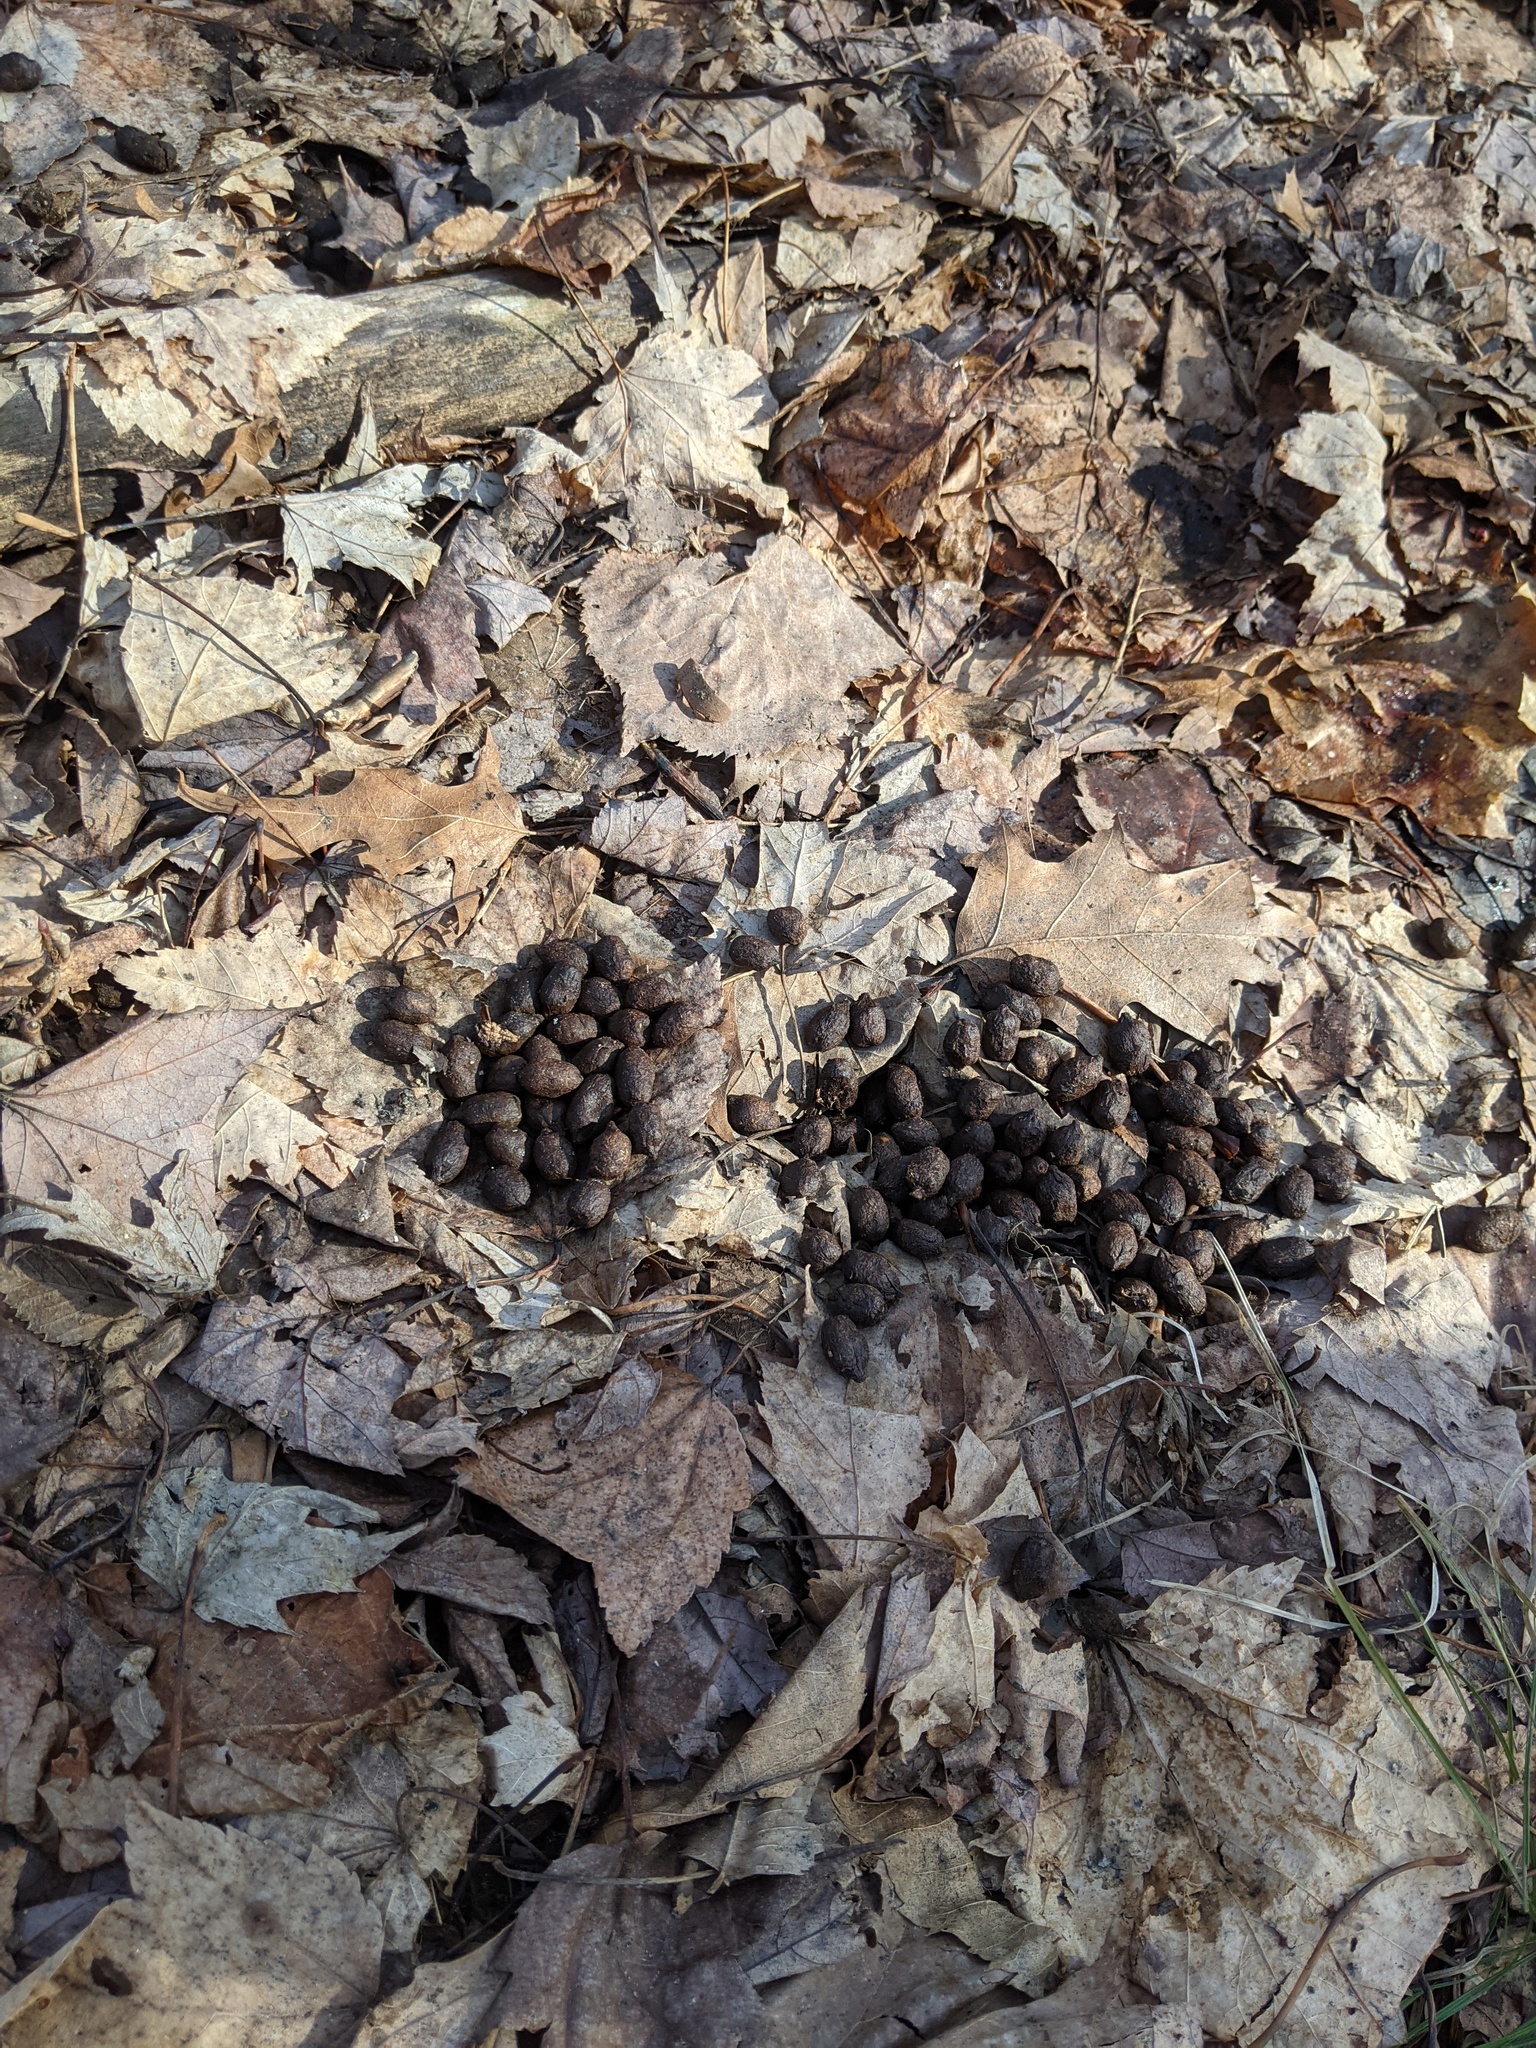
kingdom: Animalia
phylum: Chordata
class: Mammalia
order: Artiodactyla
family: Cervidae
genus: Odocoileus
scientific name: Odocoileus virginianus
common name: White-tailed deer
